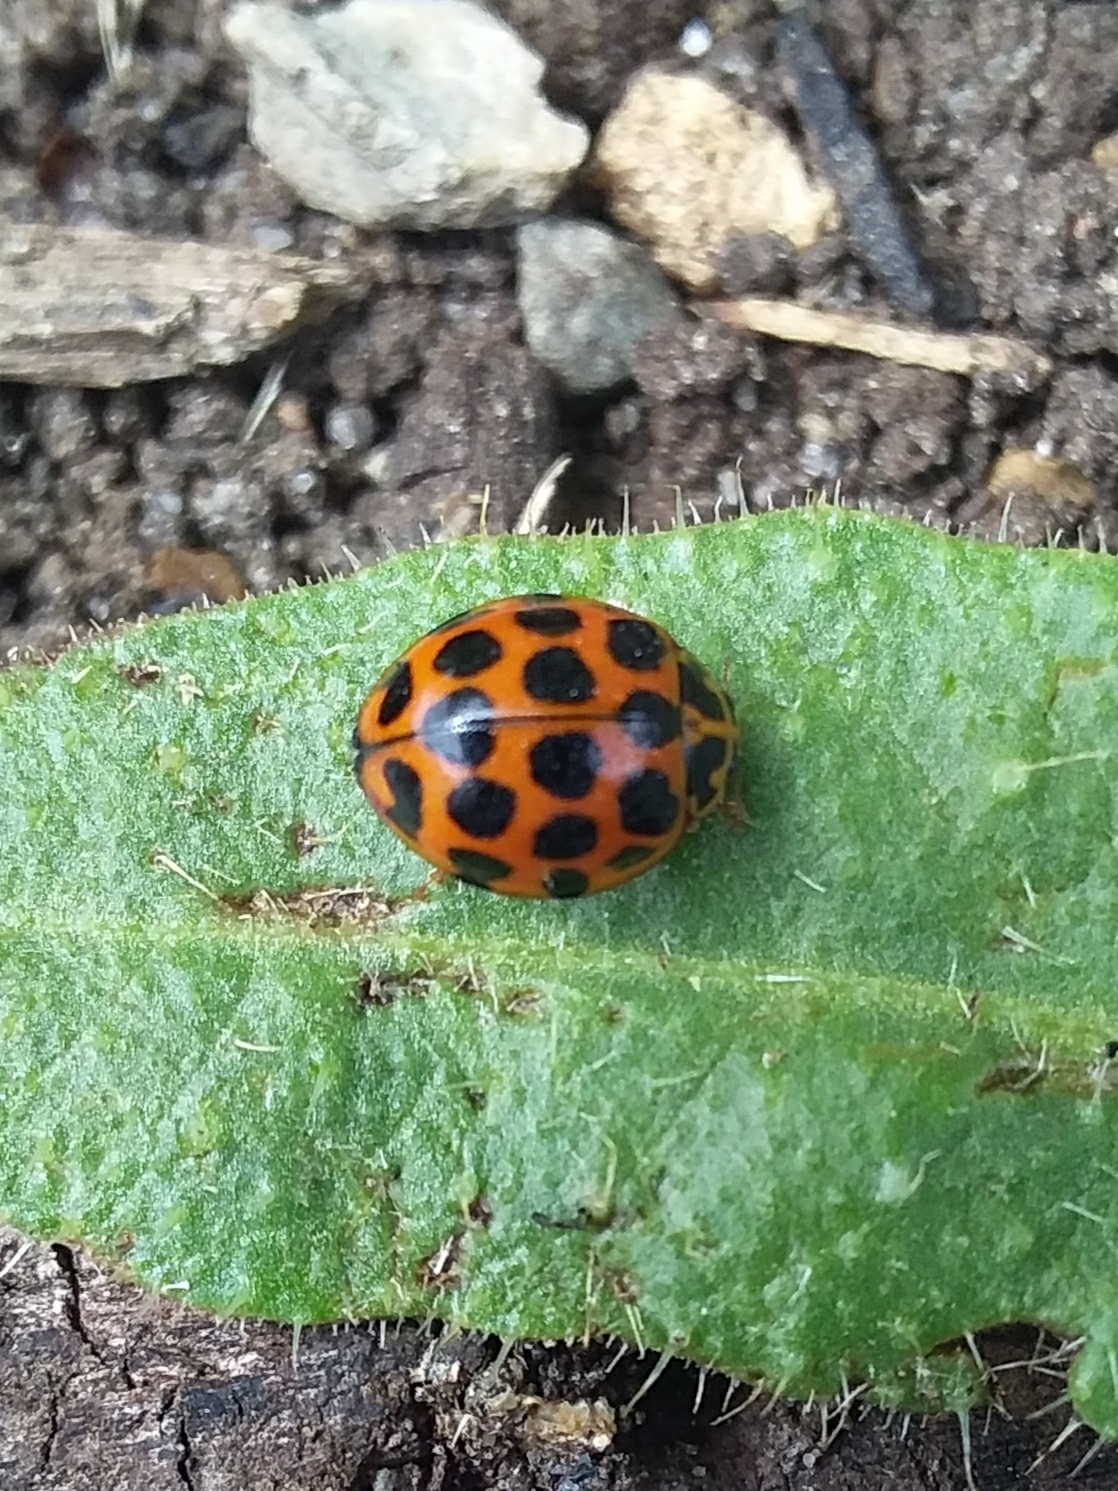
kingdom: Animalia
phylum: Arthropoda
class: Insecta
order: Coleoptera
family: Coccinellidae
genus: Harmonia
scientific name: Harmonia conformis
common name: Common spotted ladybird beetle
